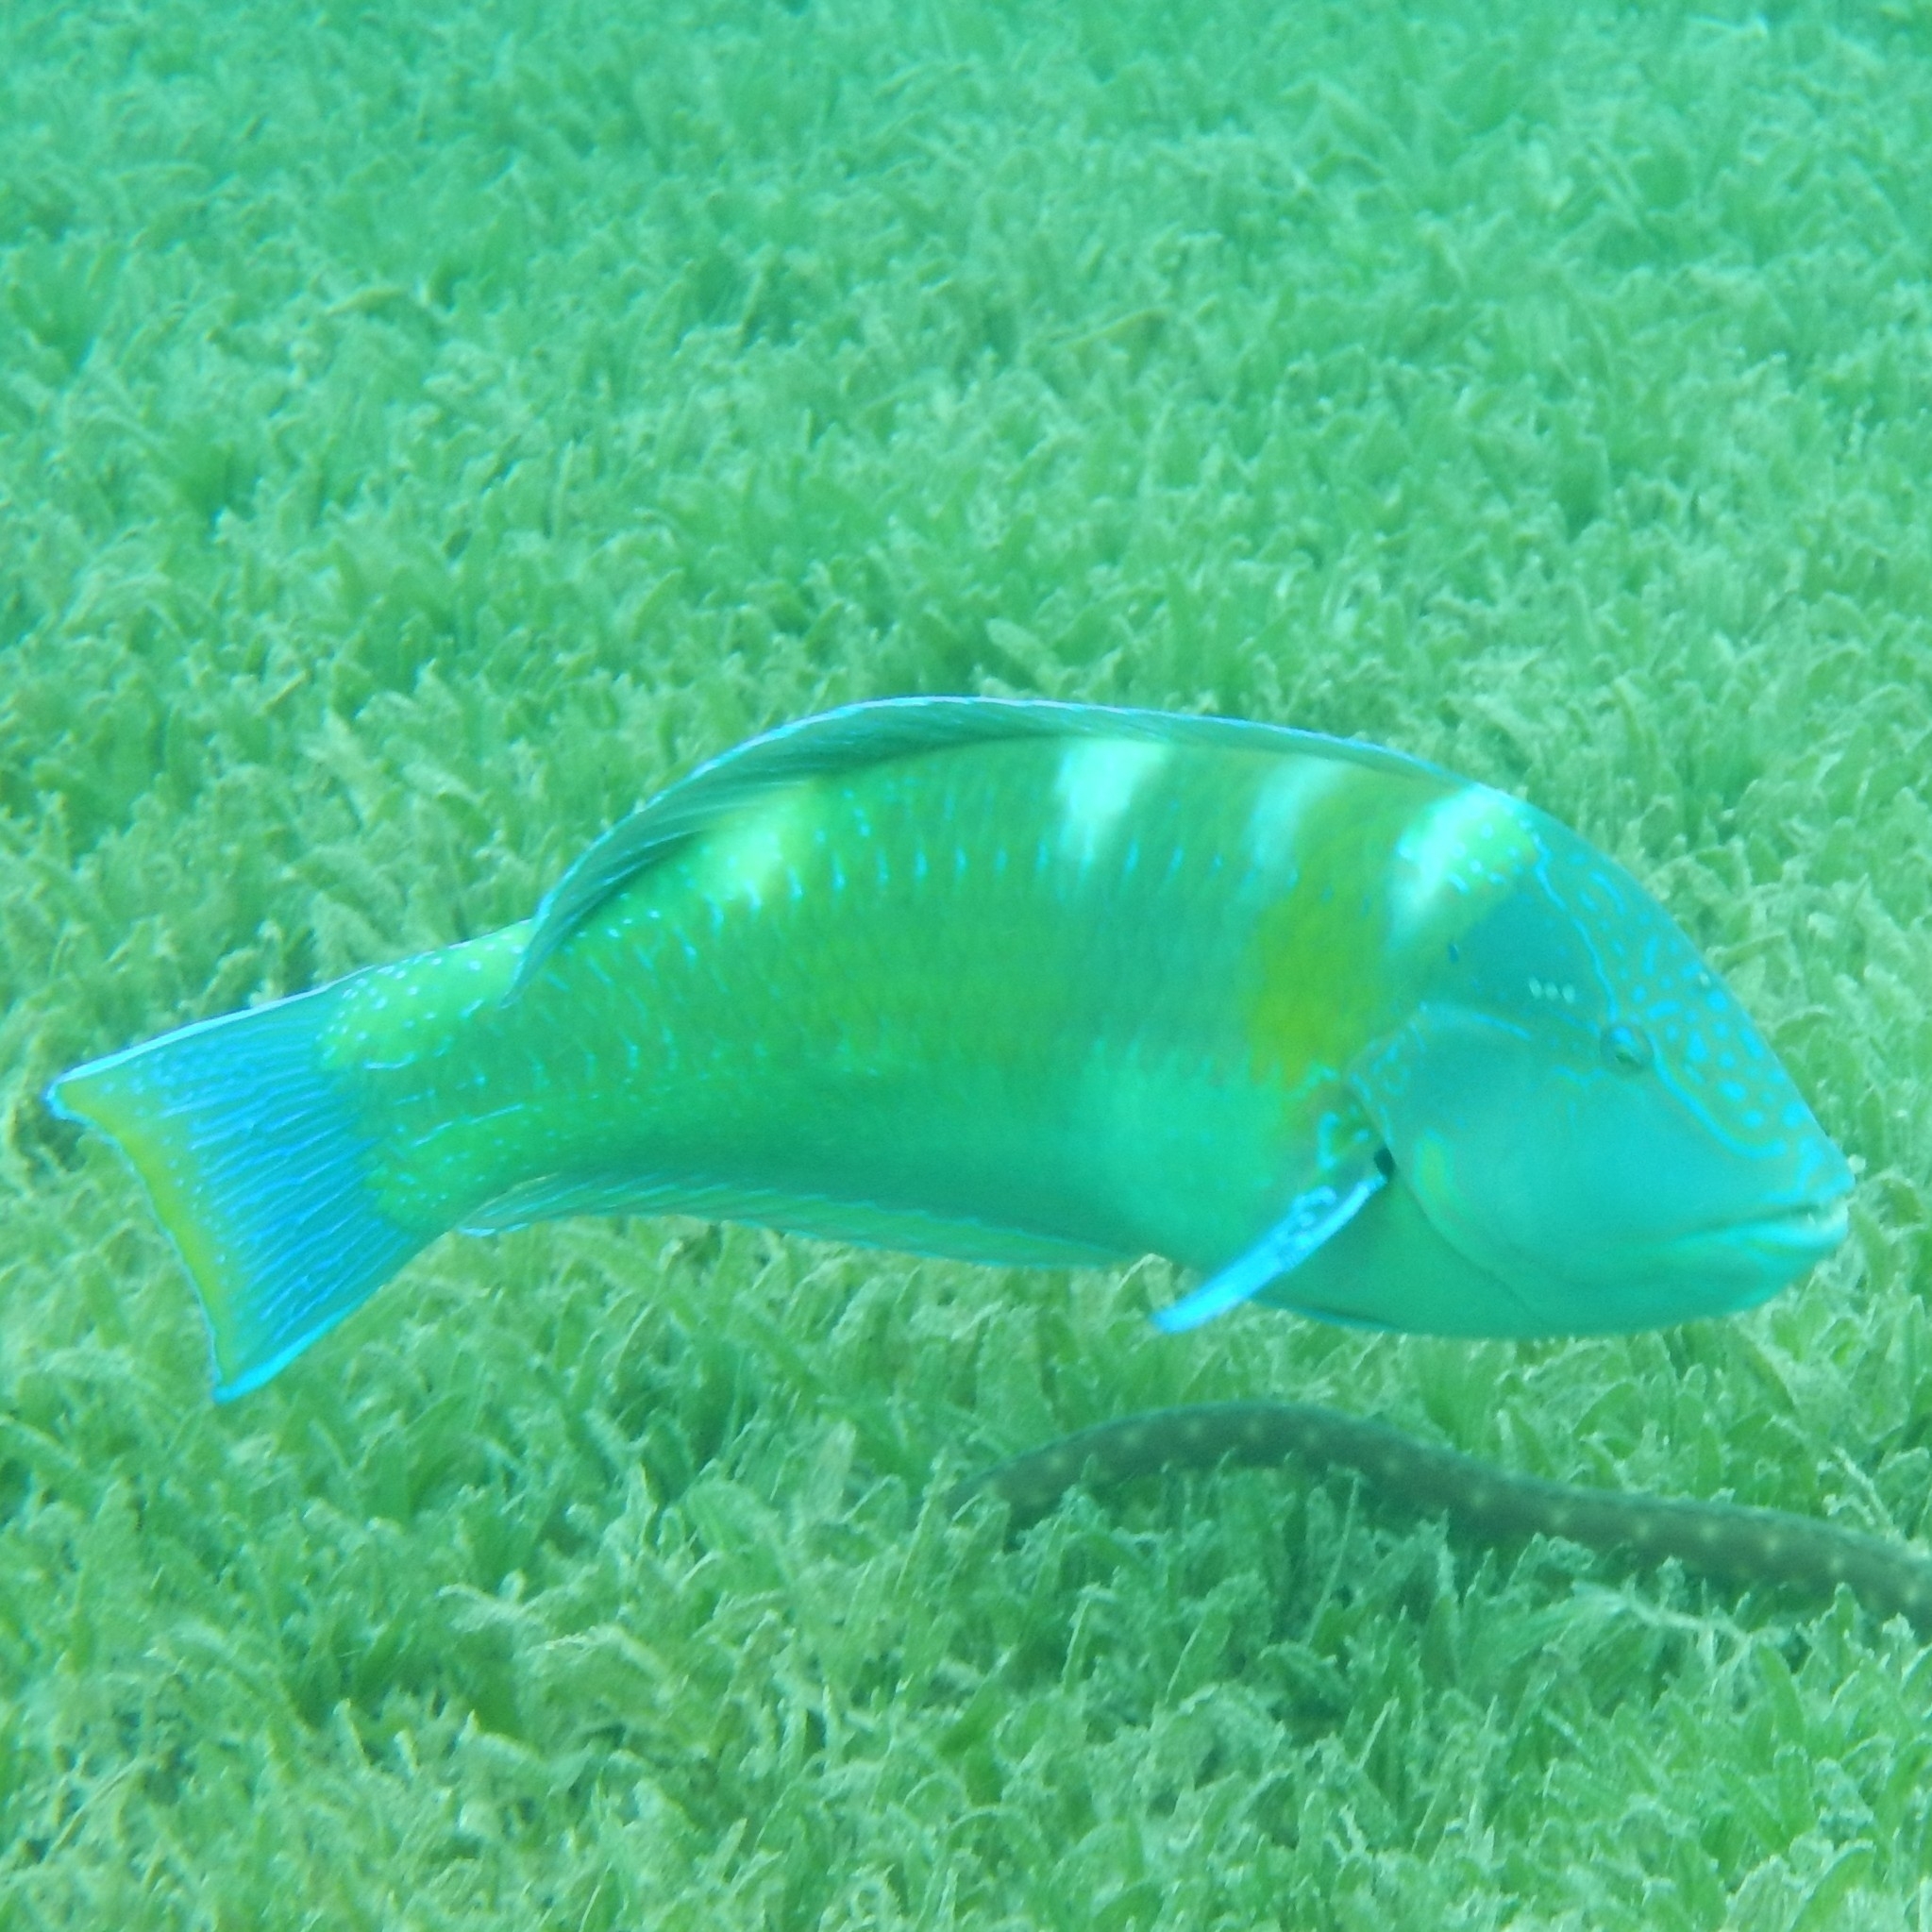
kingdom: Animalia
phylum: Chordata
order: Perciformes
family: Labridae
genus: Halichoeres
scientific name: Halichoeres radiatus
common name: Puddingwife
